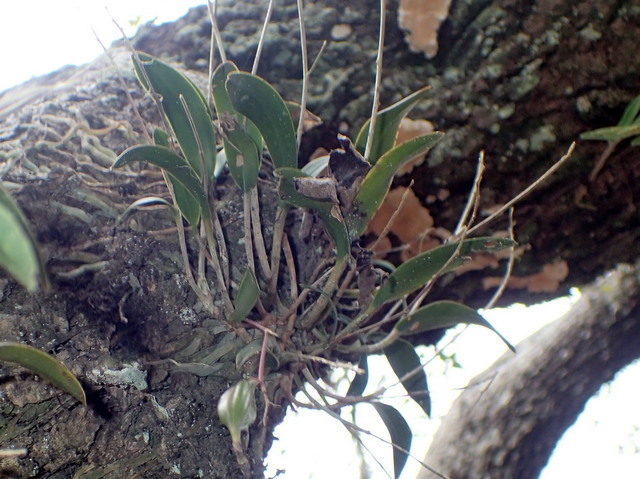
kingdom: Plantae
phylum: Tracheophyta
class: Liliopsida
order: Asparagales
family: Orchidaceae
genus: Epidendrum
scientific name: Epidendrum conopseum
